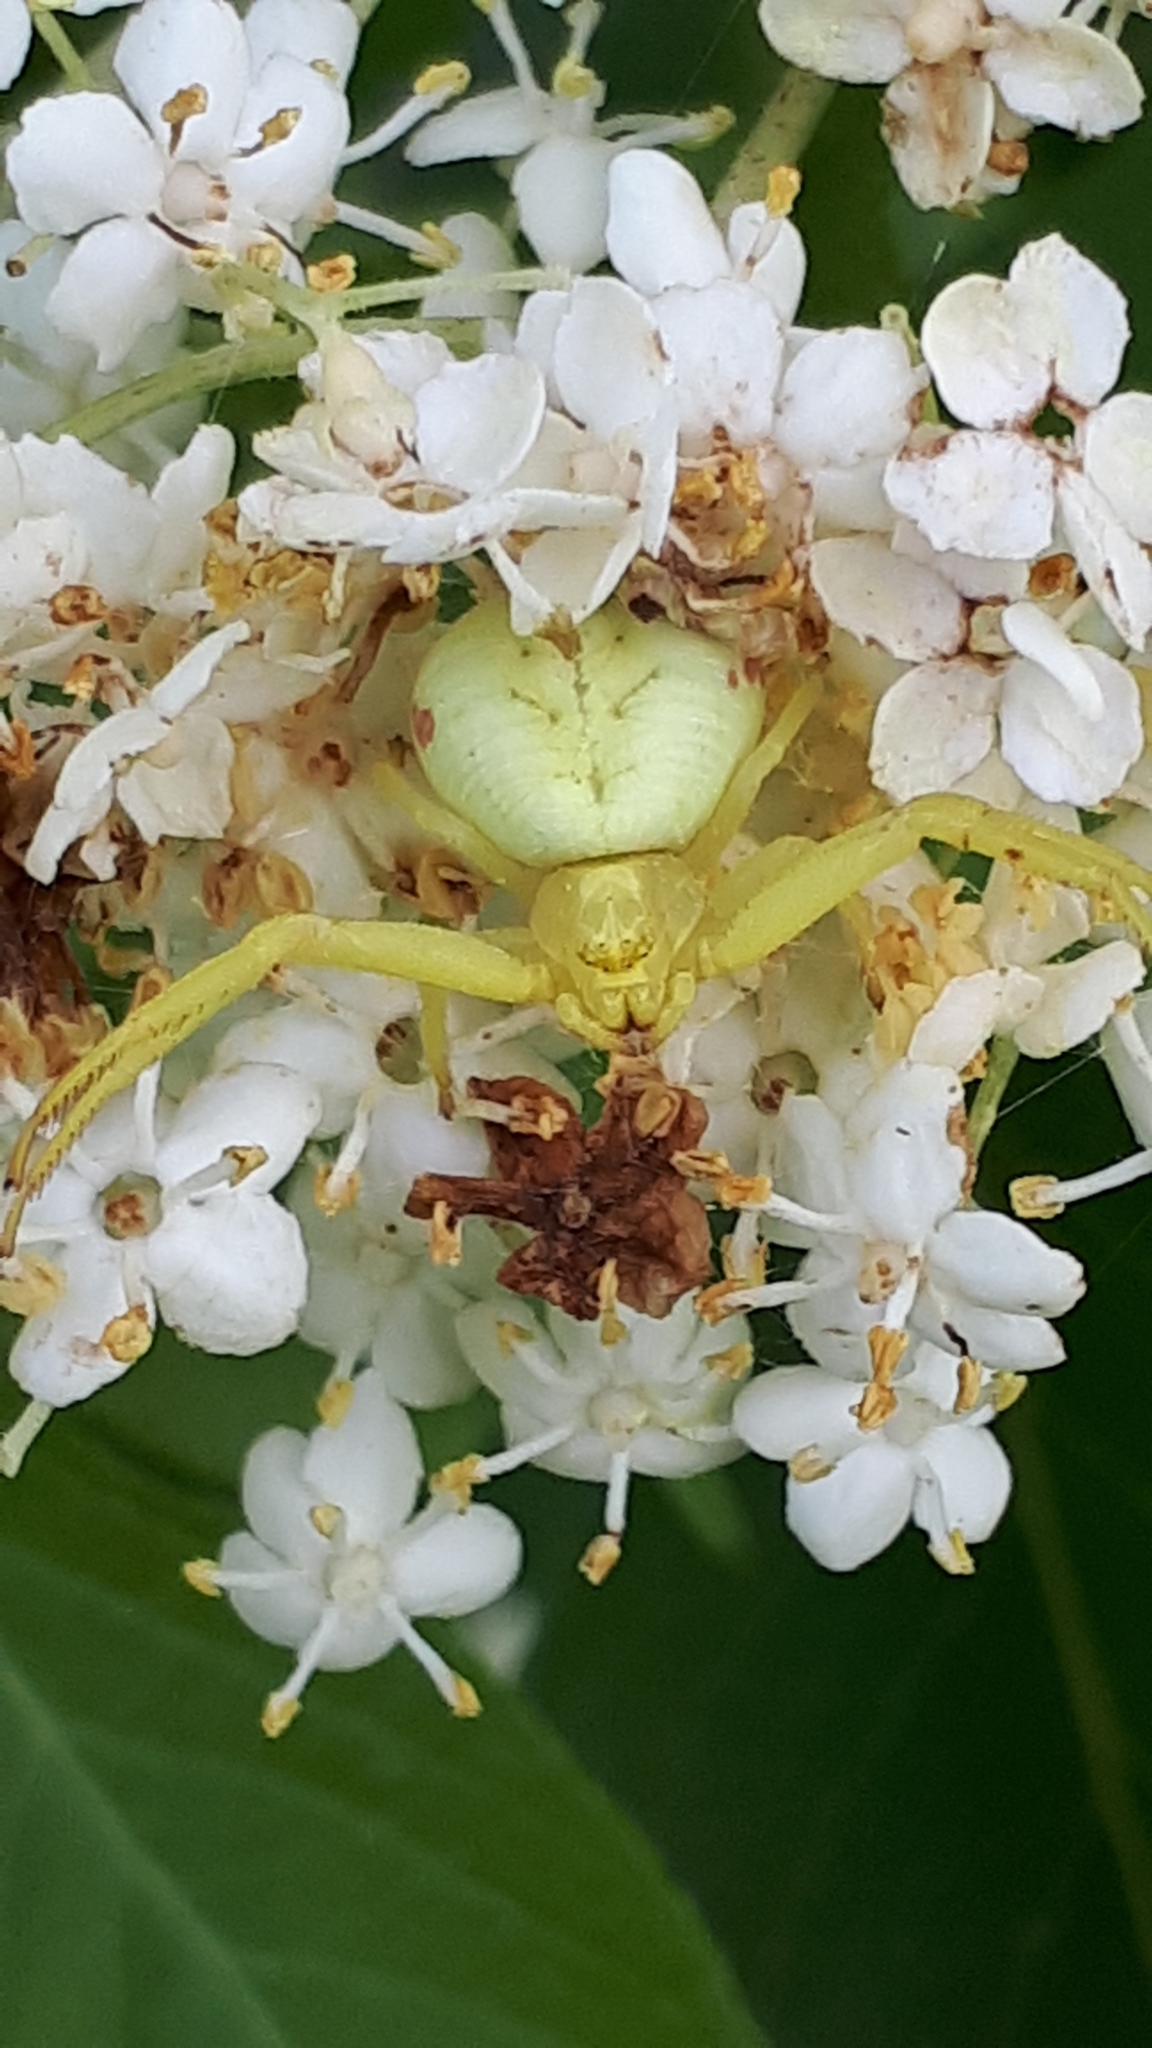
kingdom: Animalia
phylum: Arthropoda
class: Arachnida
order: Araneae
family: Thomisidae
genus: Misumena
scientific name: Misumena vatia
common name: Goldenrod crab spider
